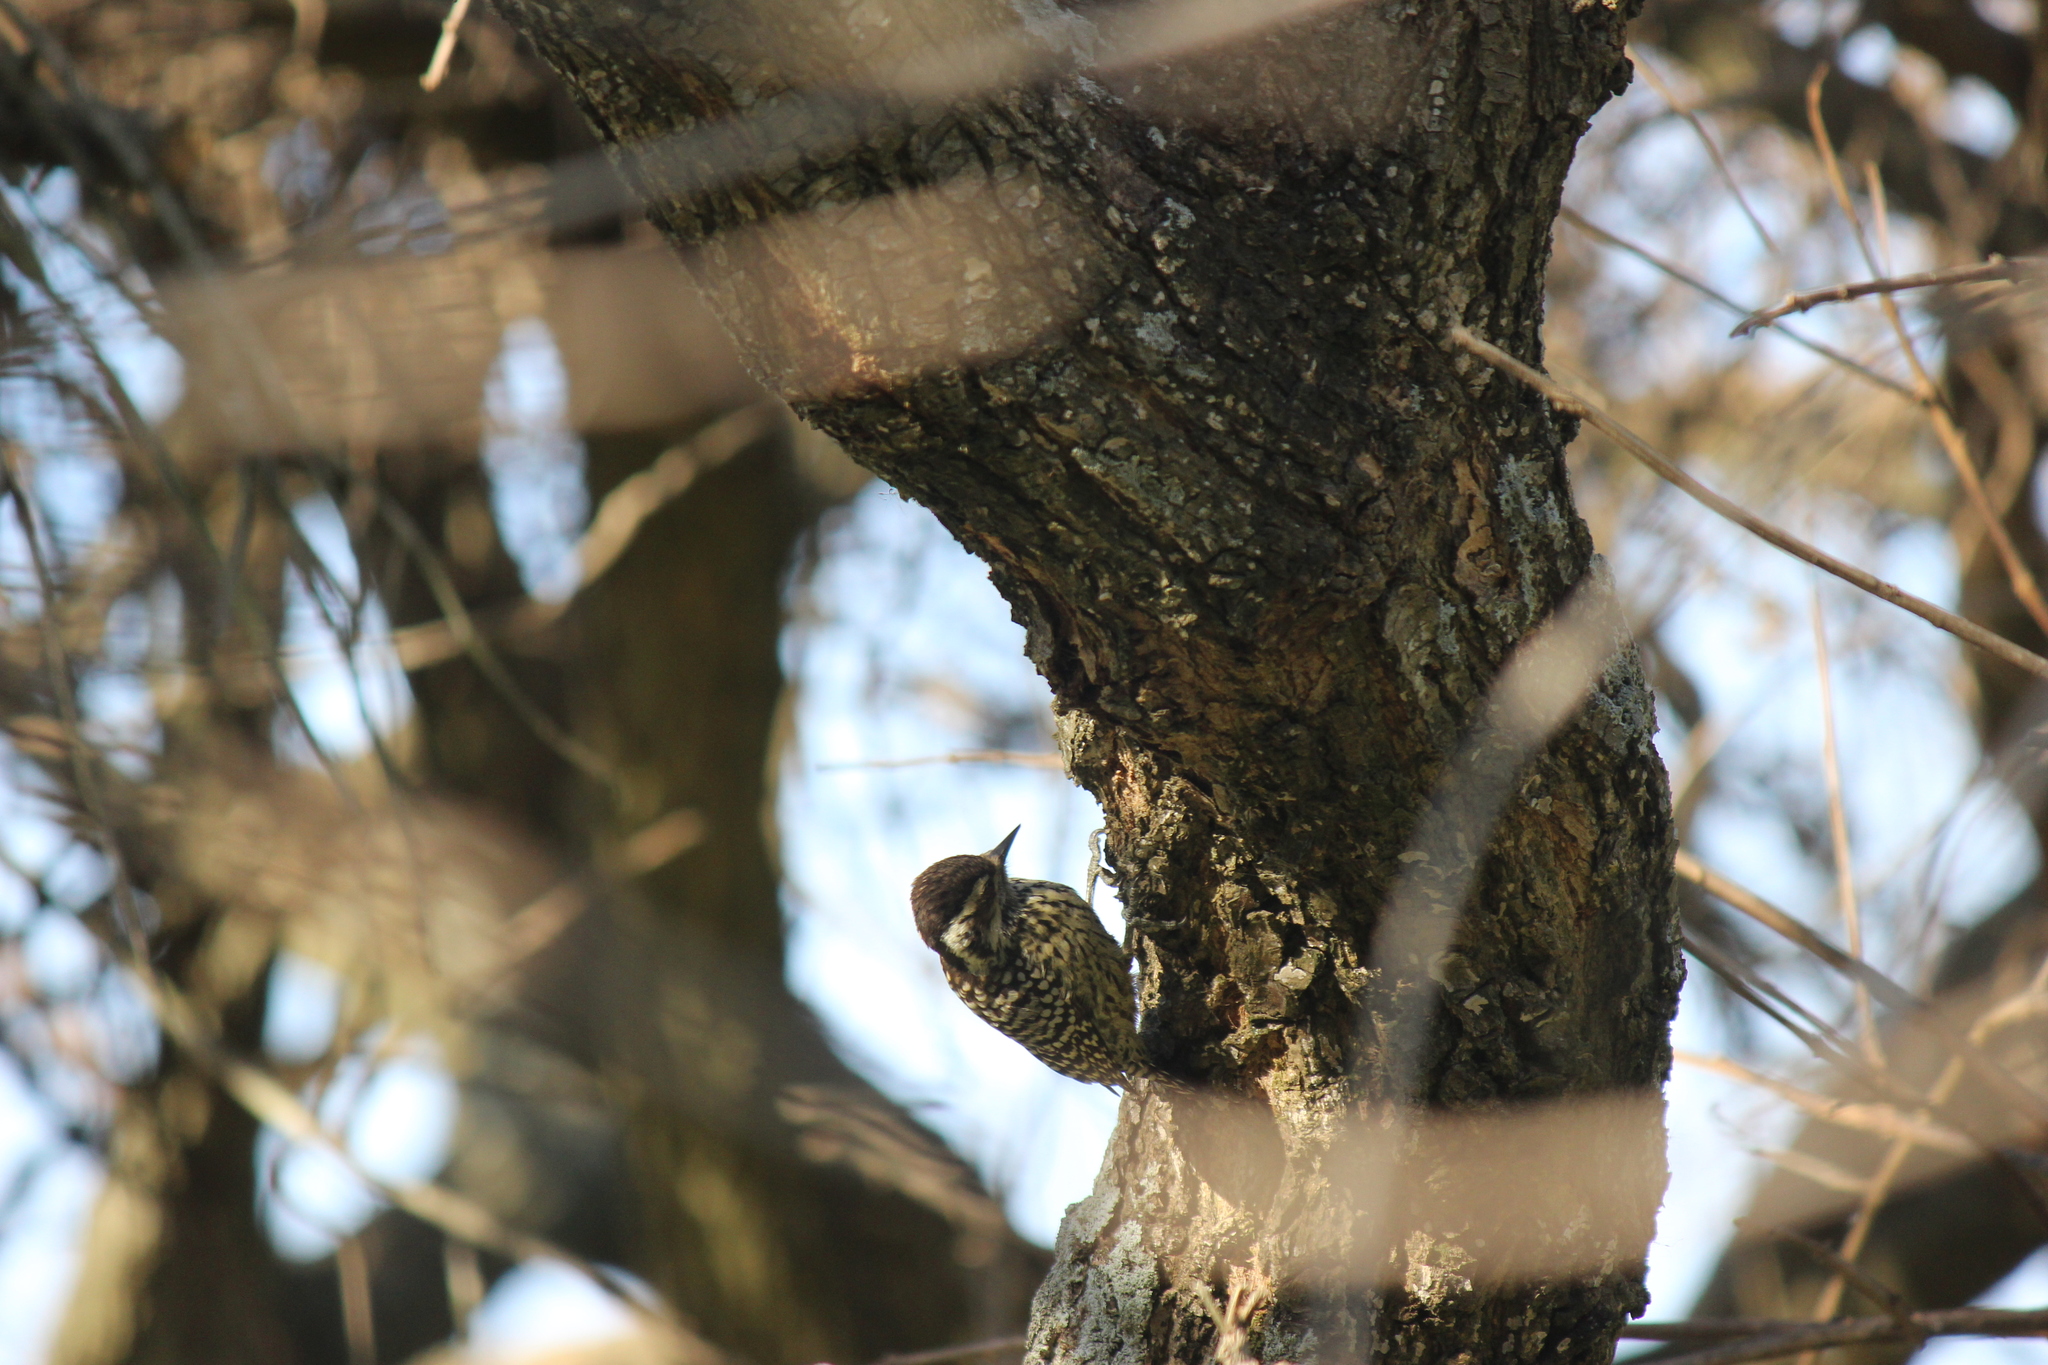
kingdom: Animalia
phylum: Chordata
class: Aves
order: Piciformes
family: Picidae
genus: Veniliornis
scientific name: Veniliornis mixtus
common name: Checkered woodpecker
